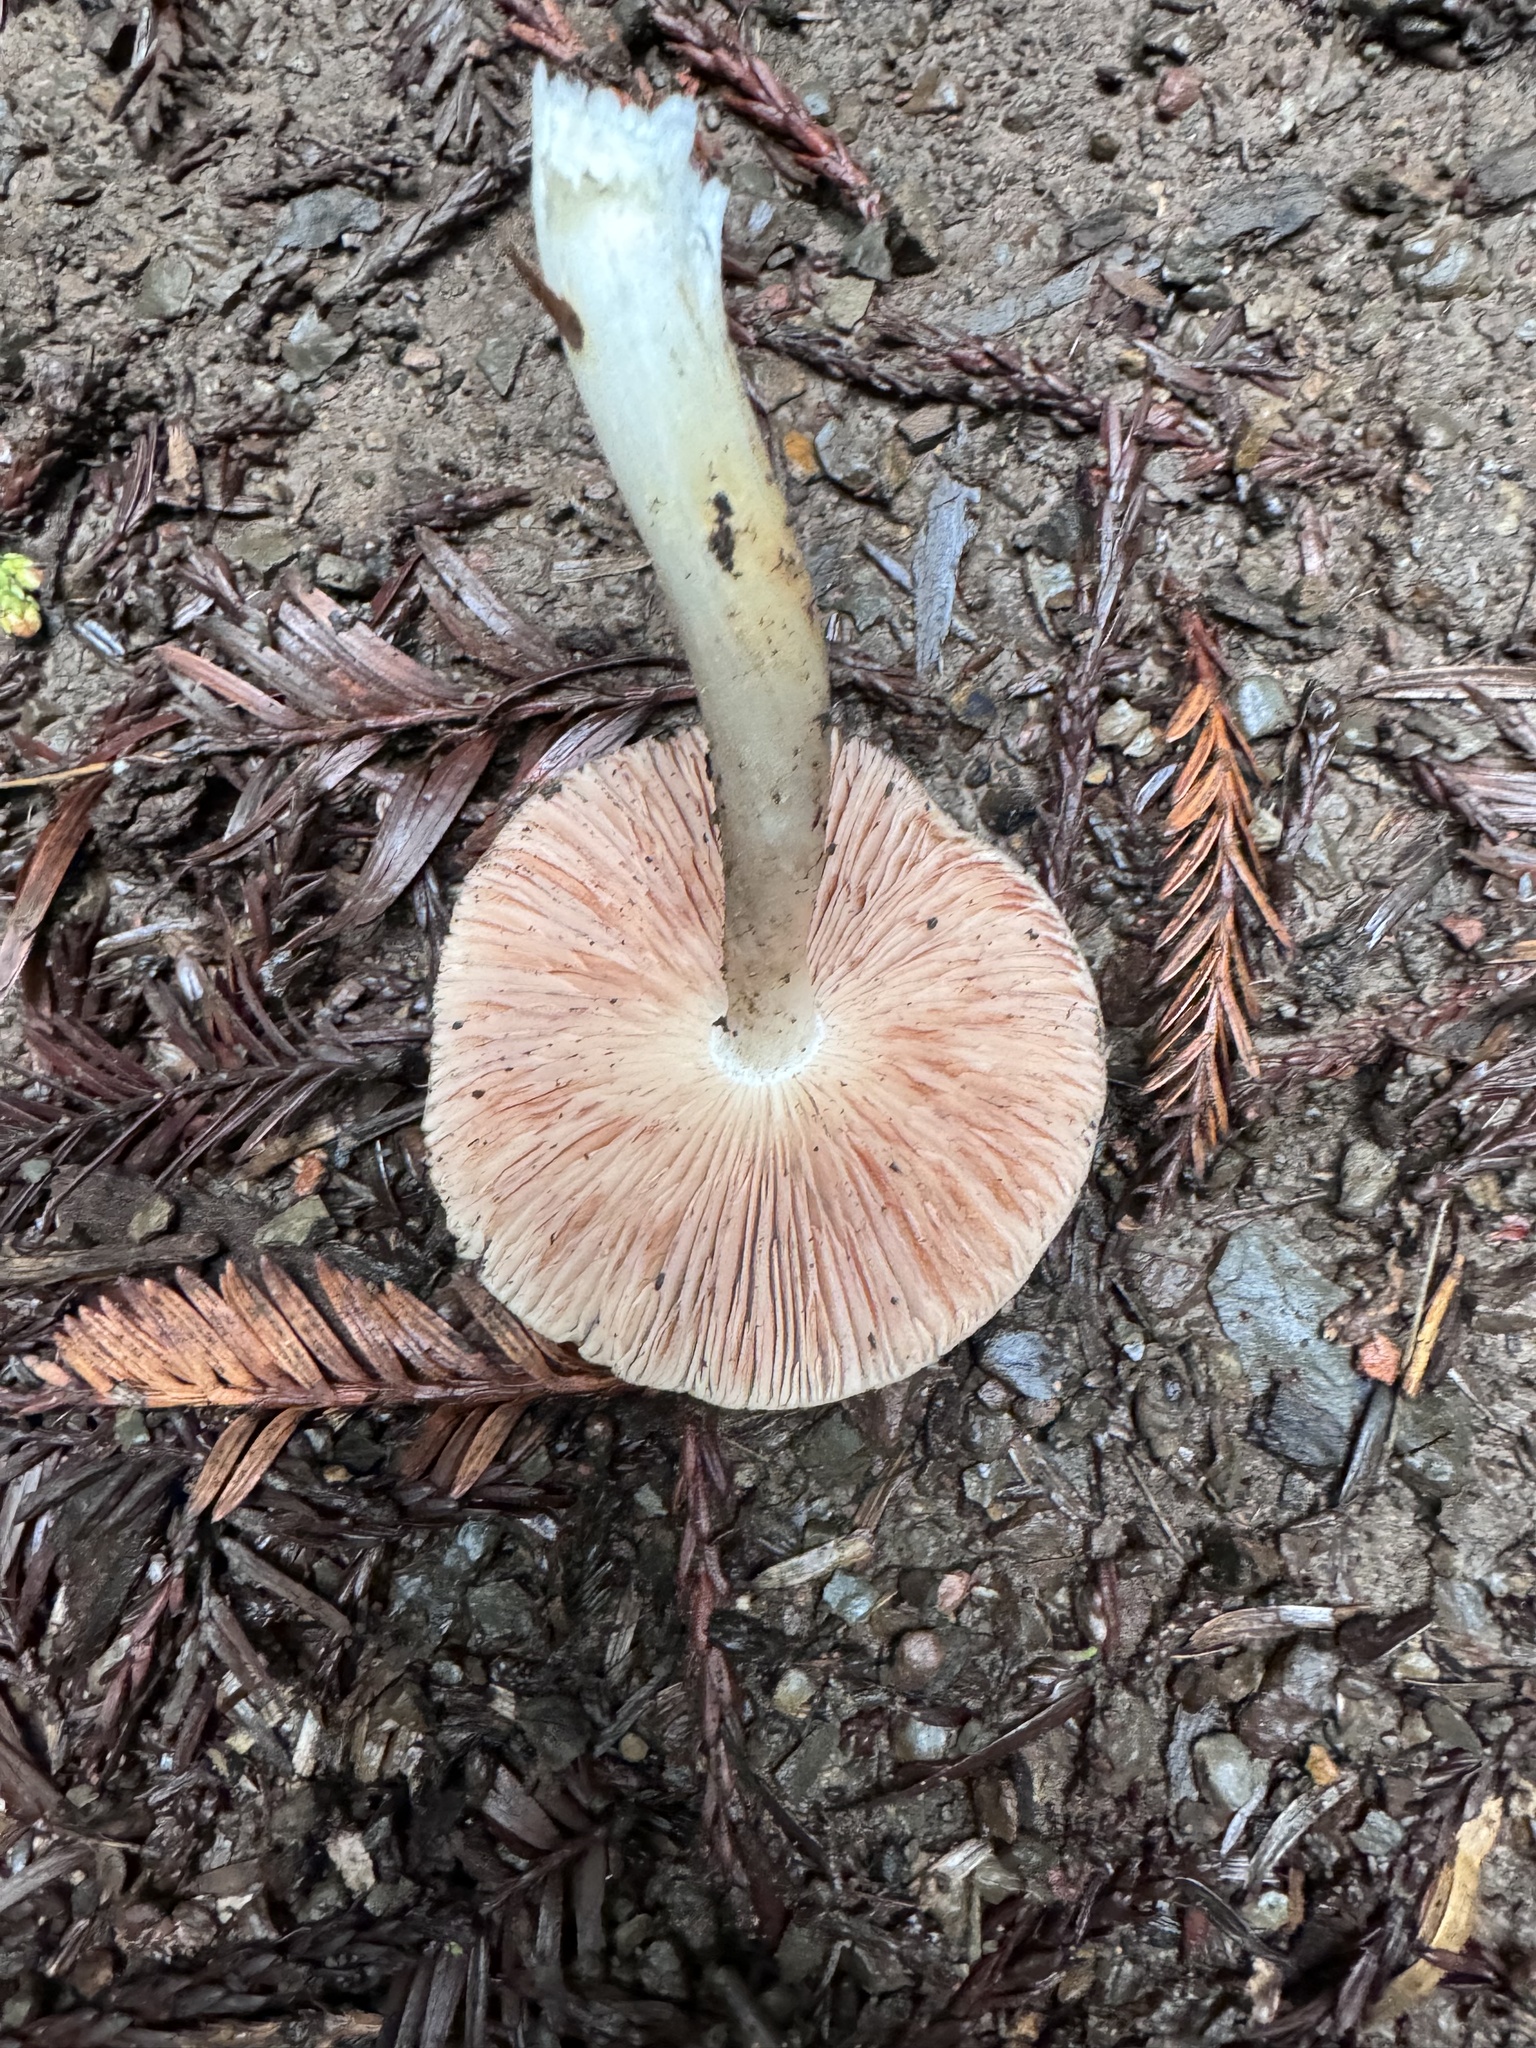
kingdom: Fungi
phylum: Basidiomycota
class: Agaricomycetes
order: Agaricales
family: Pluteaceae
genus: Pluteus
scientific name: Pluteus cervinus
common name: Deer shield
